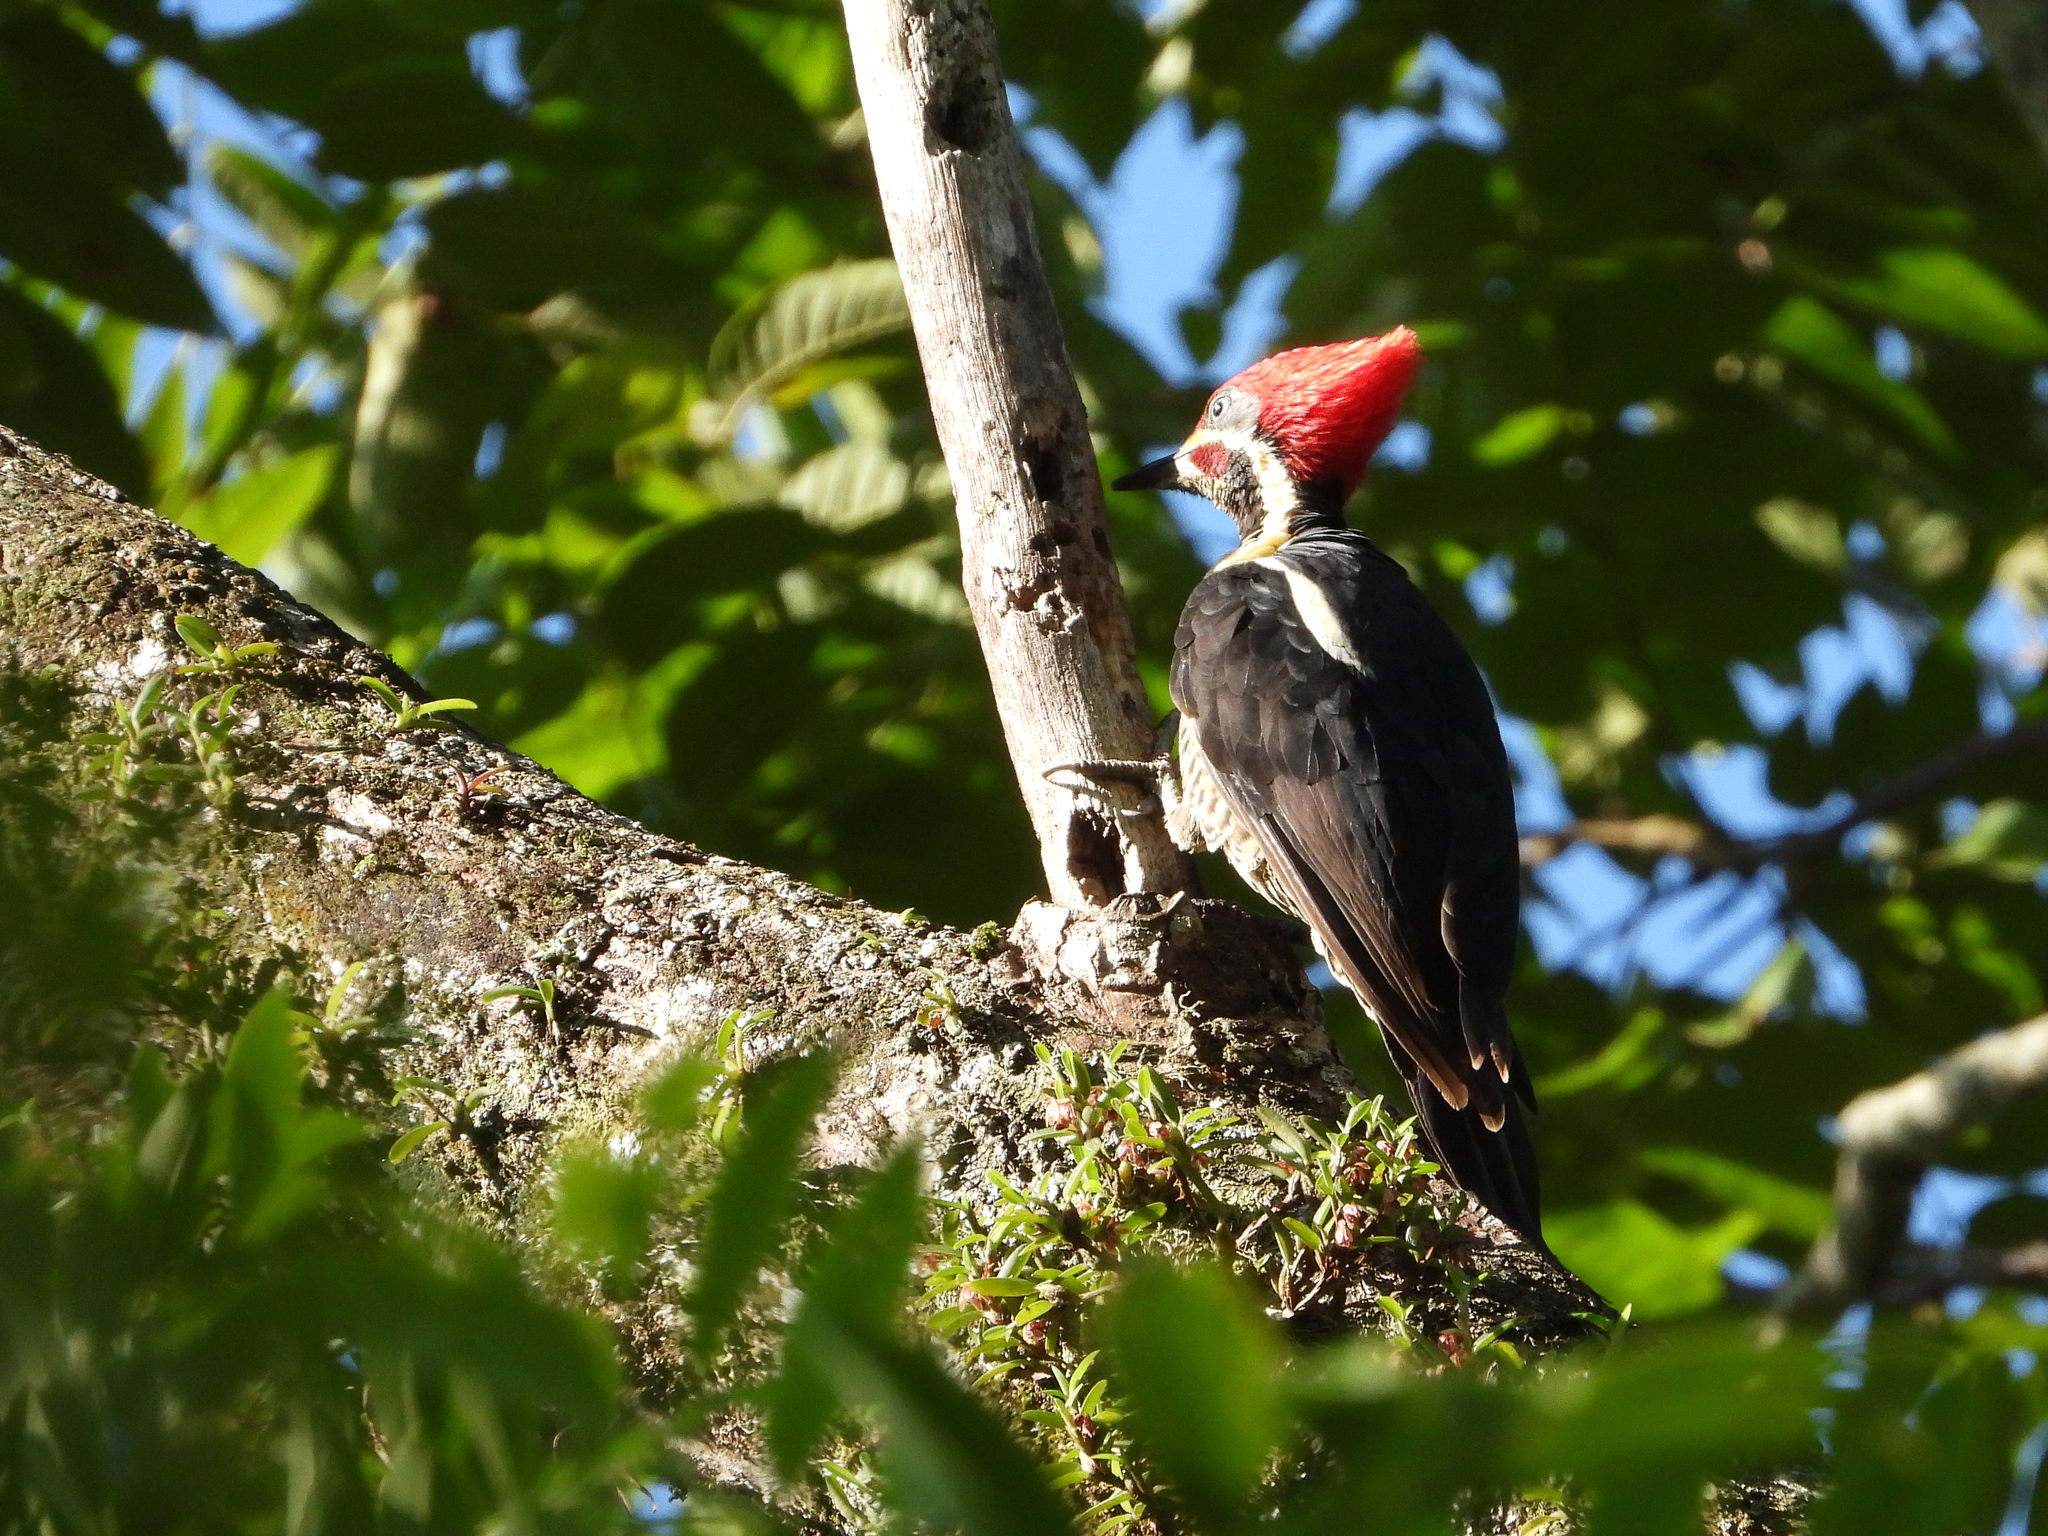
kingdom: Animalia
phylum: Chordata
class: Aves
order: Piciformes
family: Picidae
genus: Dryocopus
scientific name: Dryocopus lineatus
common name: Lineated woodpecker
